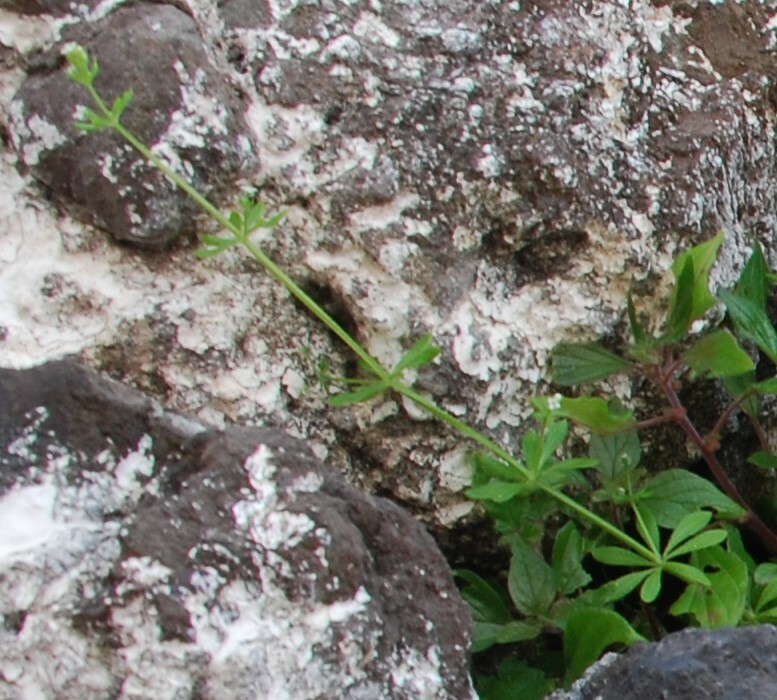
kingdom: Plantae
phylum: Tracheophyta
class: Magnoliopsida
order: Gentianales
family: Rubiaceae
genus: Galium
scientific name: Galium aparine
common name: Cleavers
